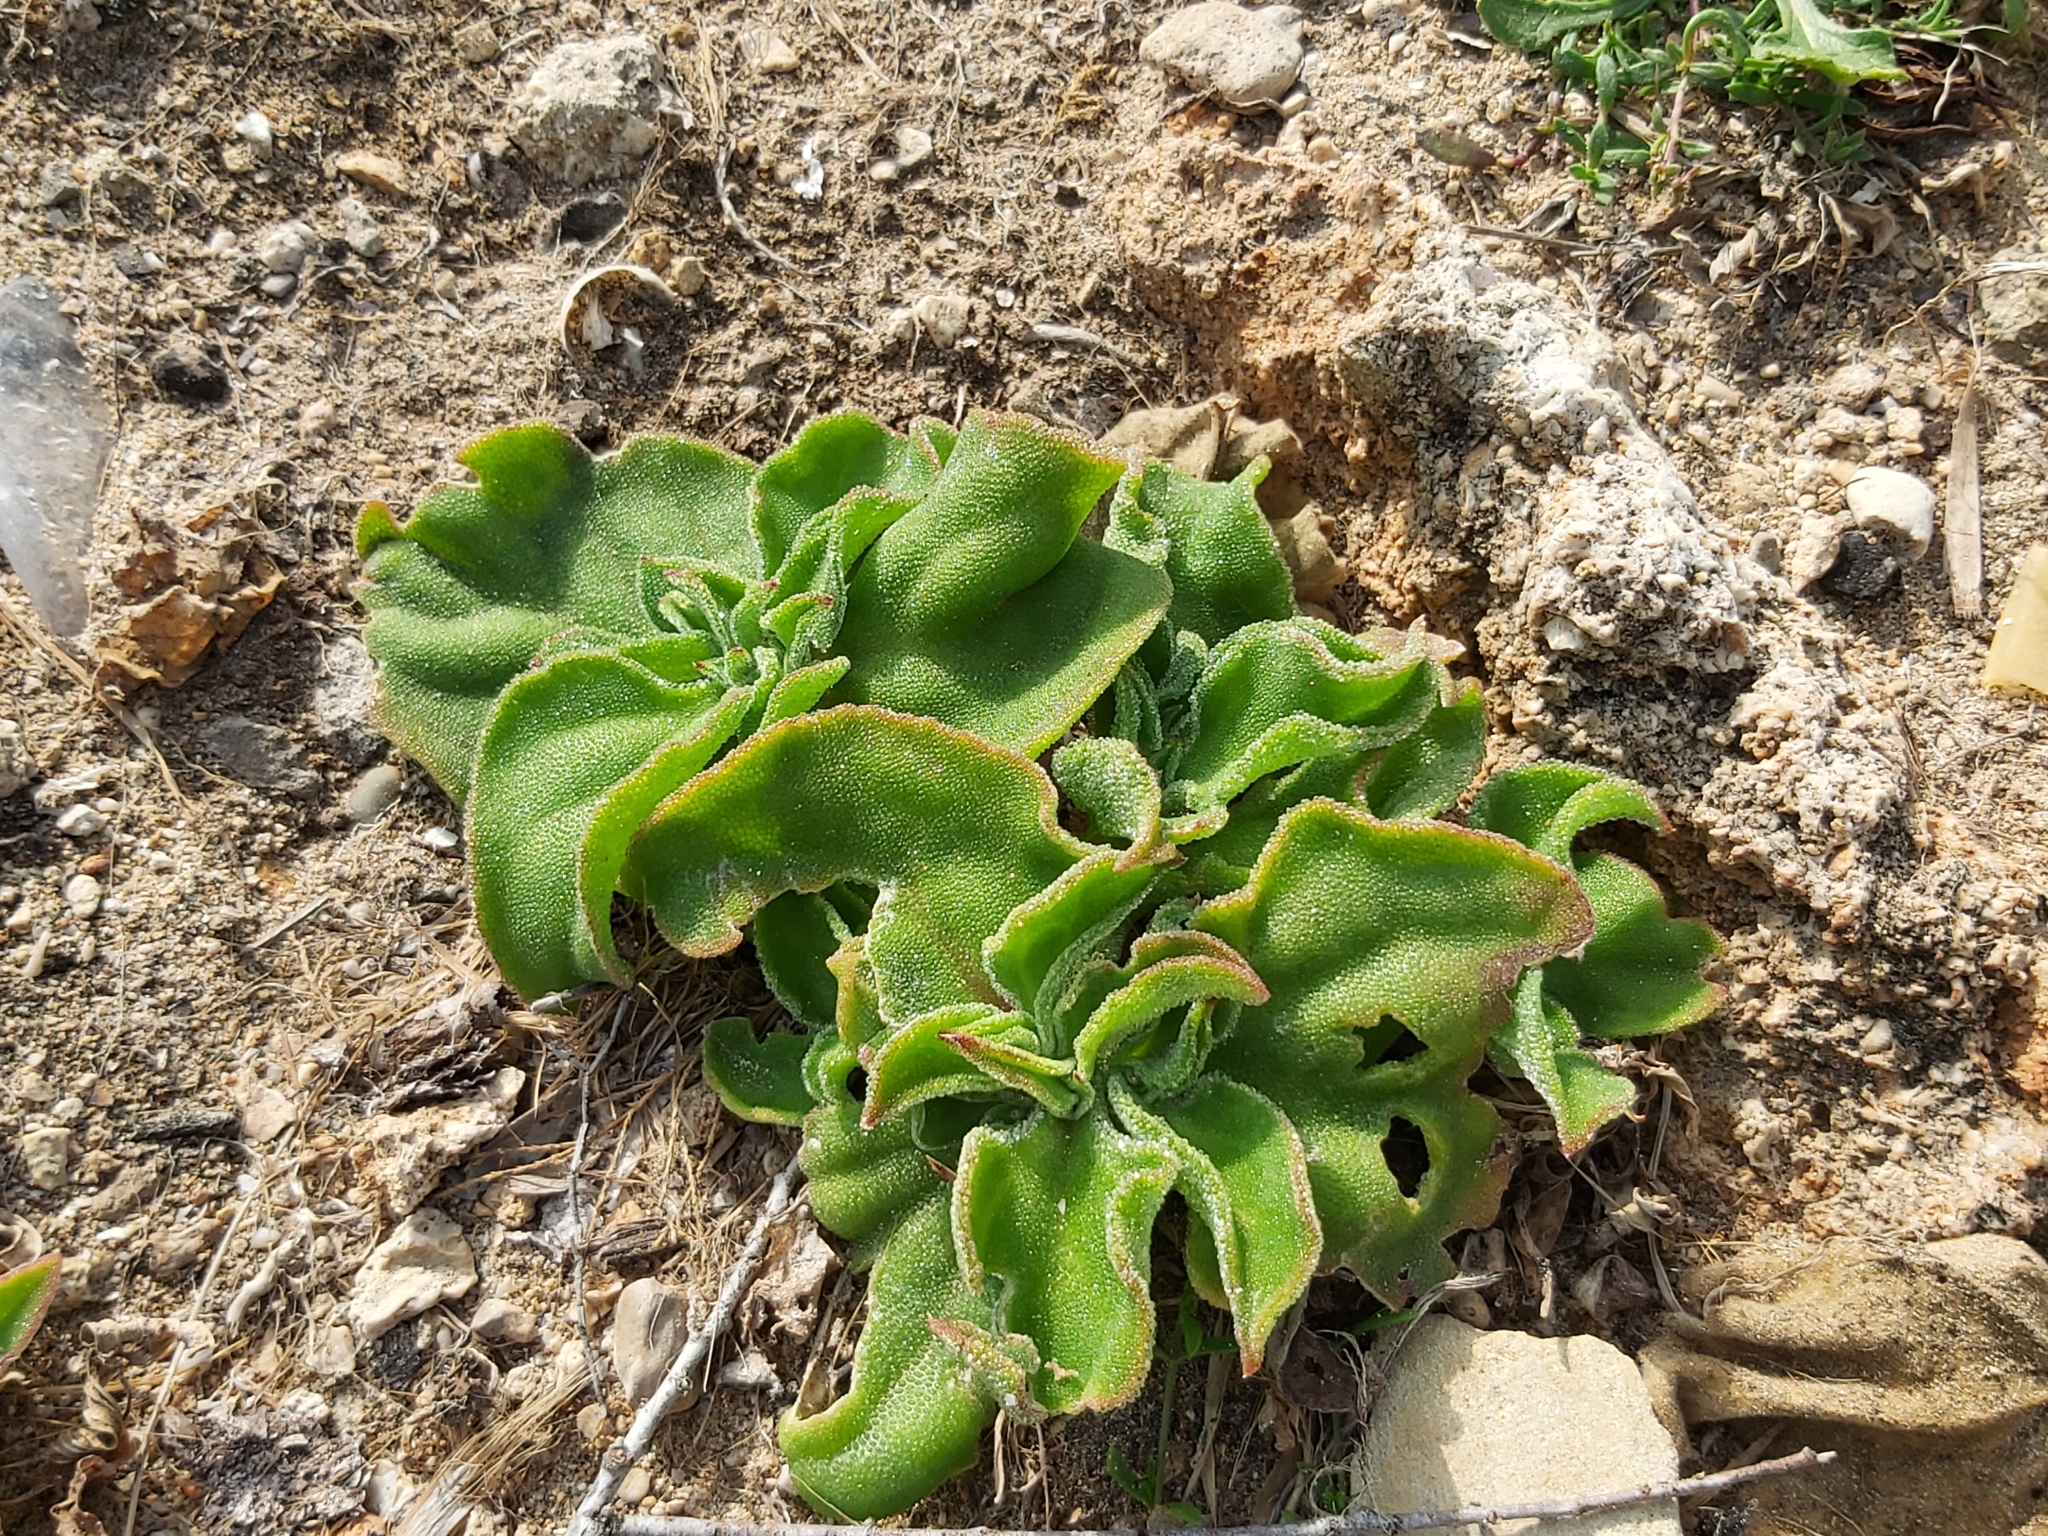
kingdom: Plantae
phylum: Tracheophyta
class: Magnoliopsida
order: Caryophyllales
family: Aizoaceae
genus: Mesembryanthemum
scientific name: Mesembryanthemum crystallinum
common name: Common iceplant
